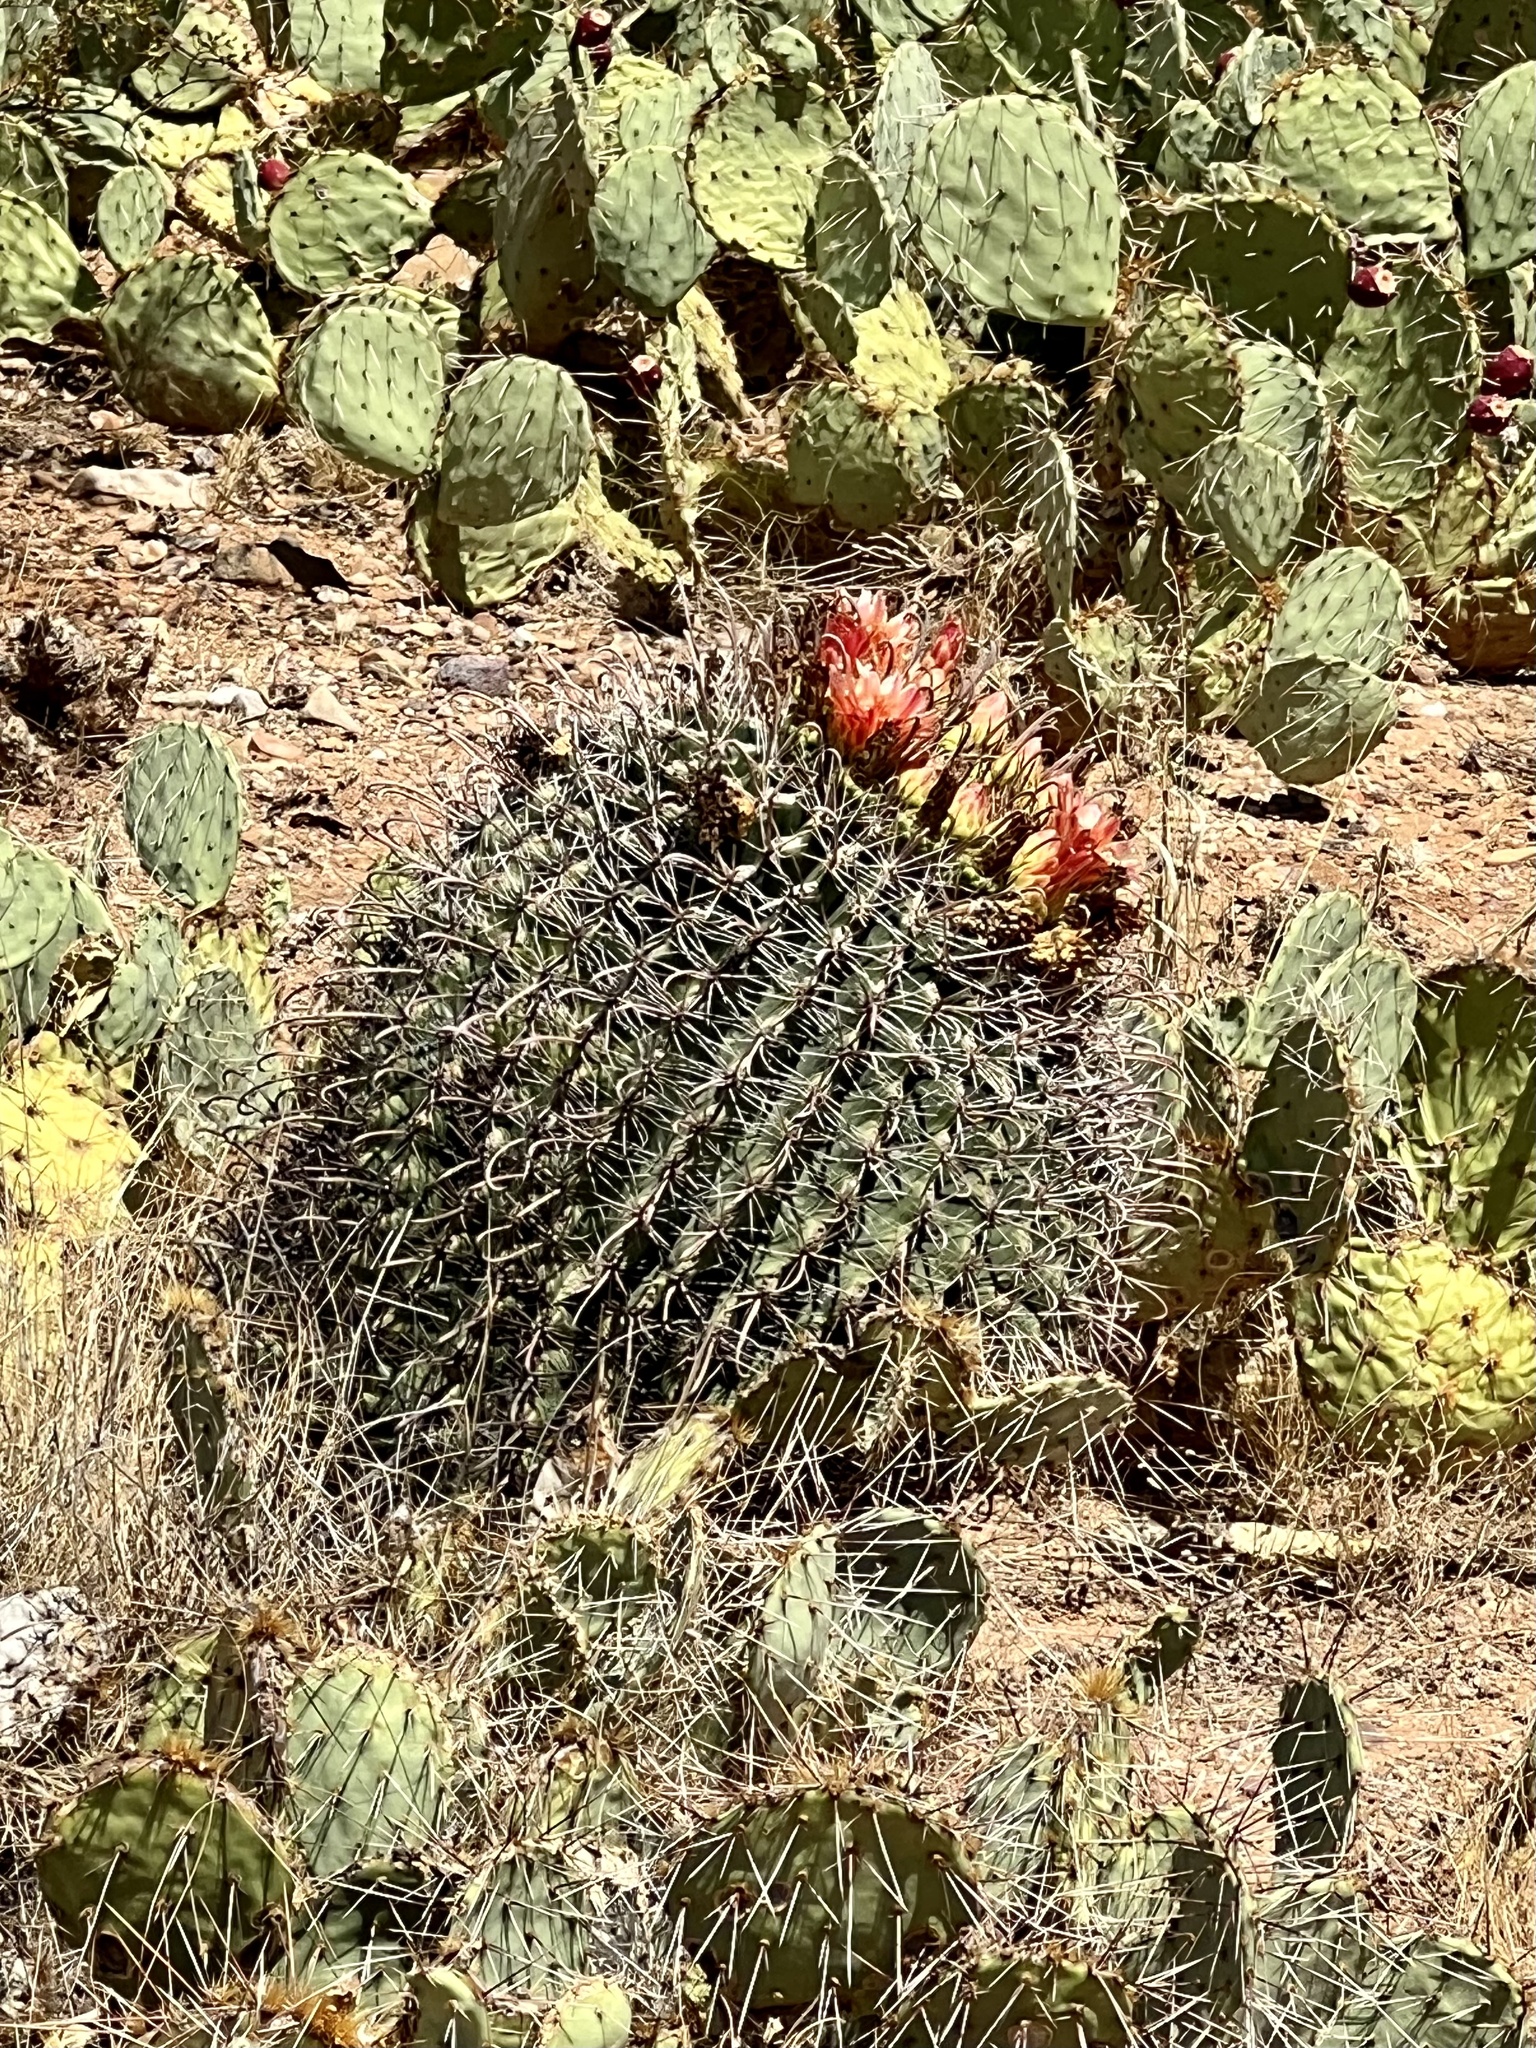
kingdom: Plantae
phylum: Tracheophyta
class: Magnoliopsida
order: Caryophyllales
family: Cactaceae
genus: Ferocactus
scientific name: Ferocactus wislizeni
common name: Candy barrel cactus
